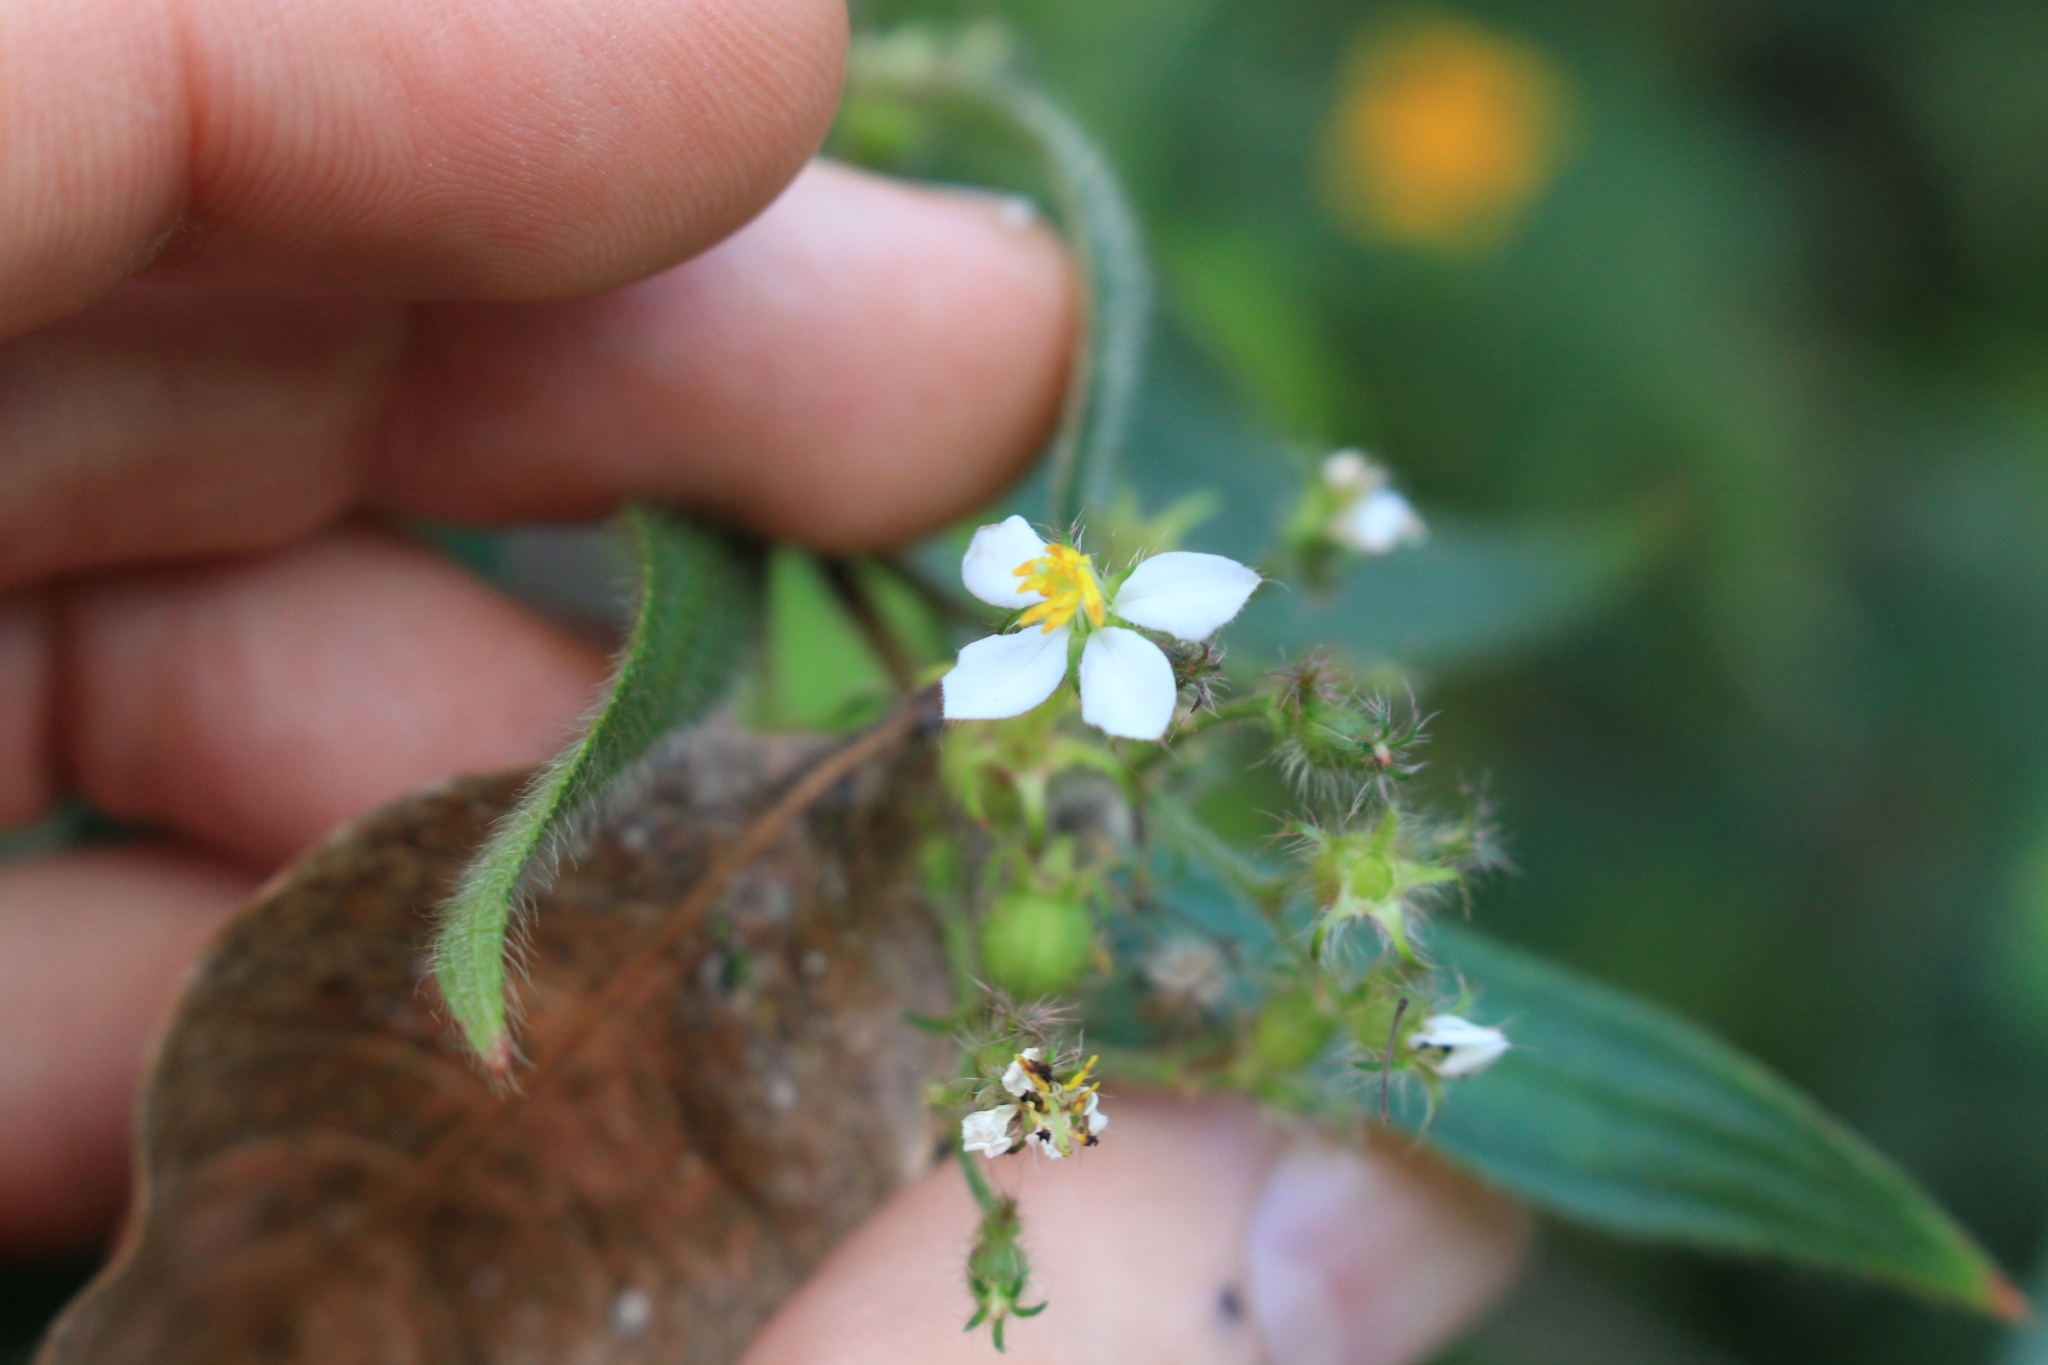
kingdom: Plantae
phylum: Tracheophyta
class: Magnoliopsida
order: Myrtales
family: Melastomataceae
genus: Chaetogastra
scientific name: Chaetogastra longifolia
